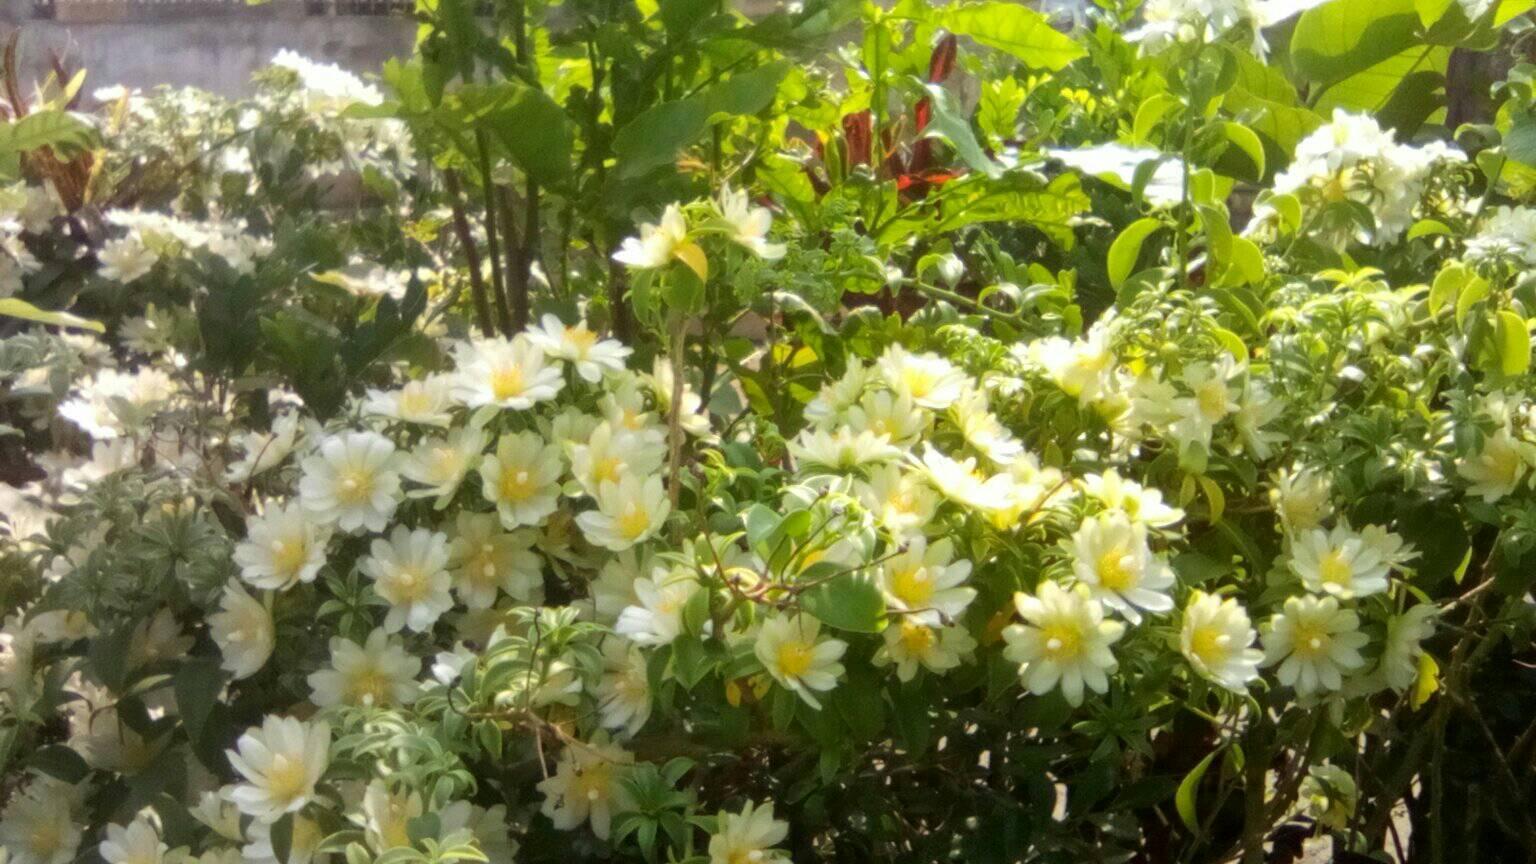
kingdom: Plantae
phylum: Tracheophyta
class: Magnoliopsida
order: Caryophyllales
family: Cactaceae
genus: Pereskia
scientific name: Pereskia aculeata
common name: Barbados gooseberry
